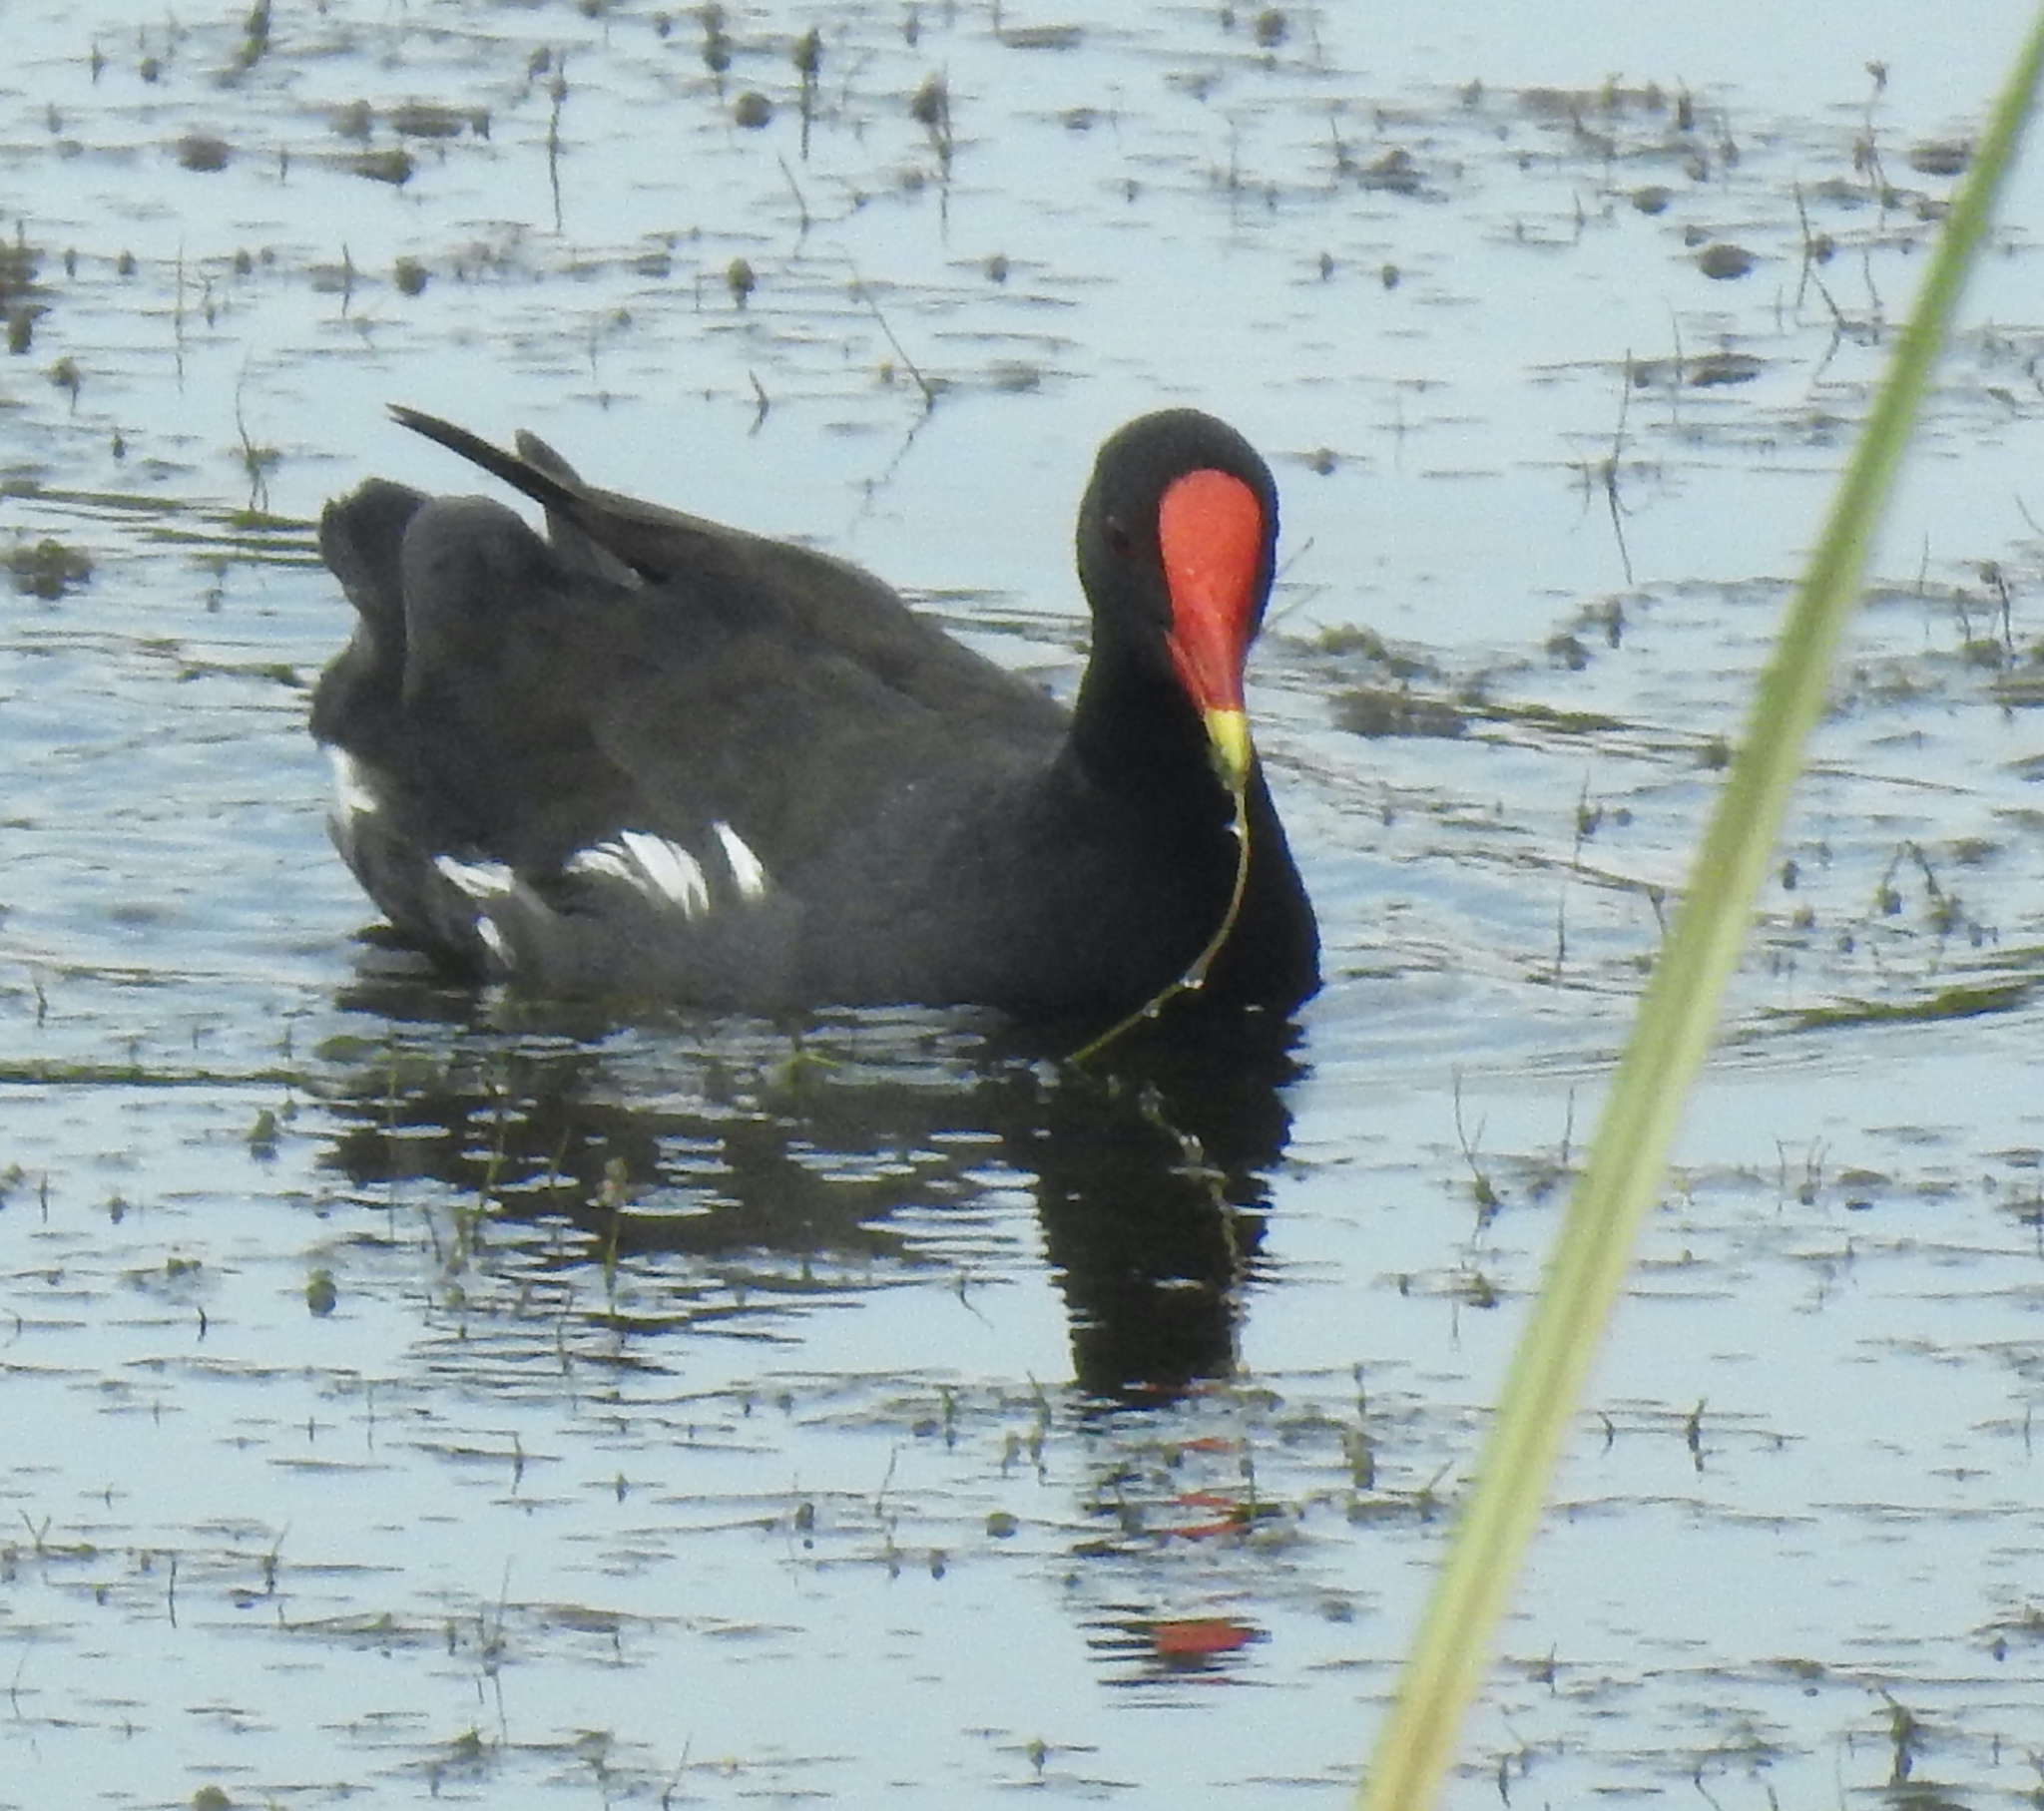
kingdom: Animalia
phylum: Chordata
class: Aves
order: Gruiformes
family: Rallidae
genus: Gallinula
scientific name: Gallinula chloropus
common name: Common moorhen
